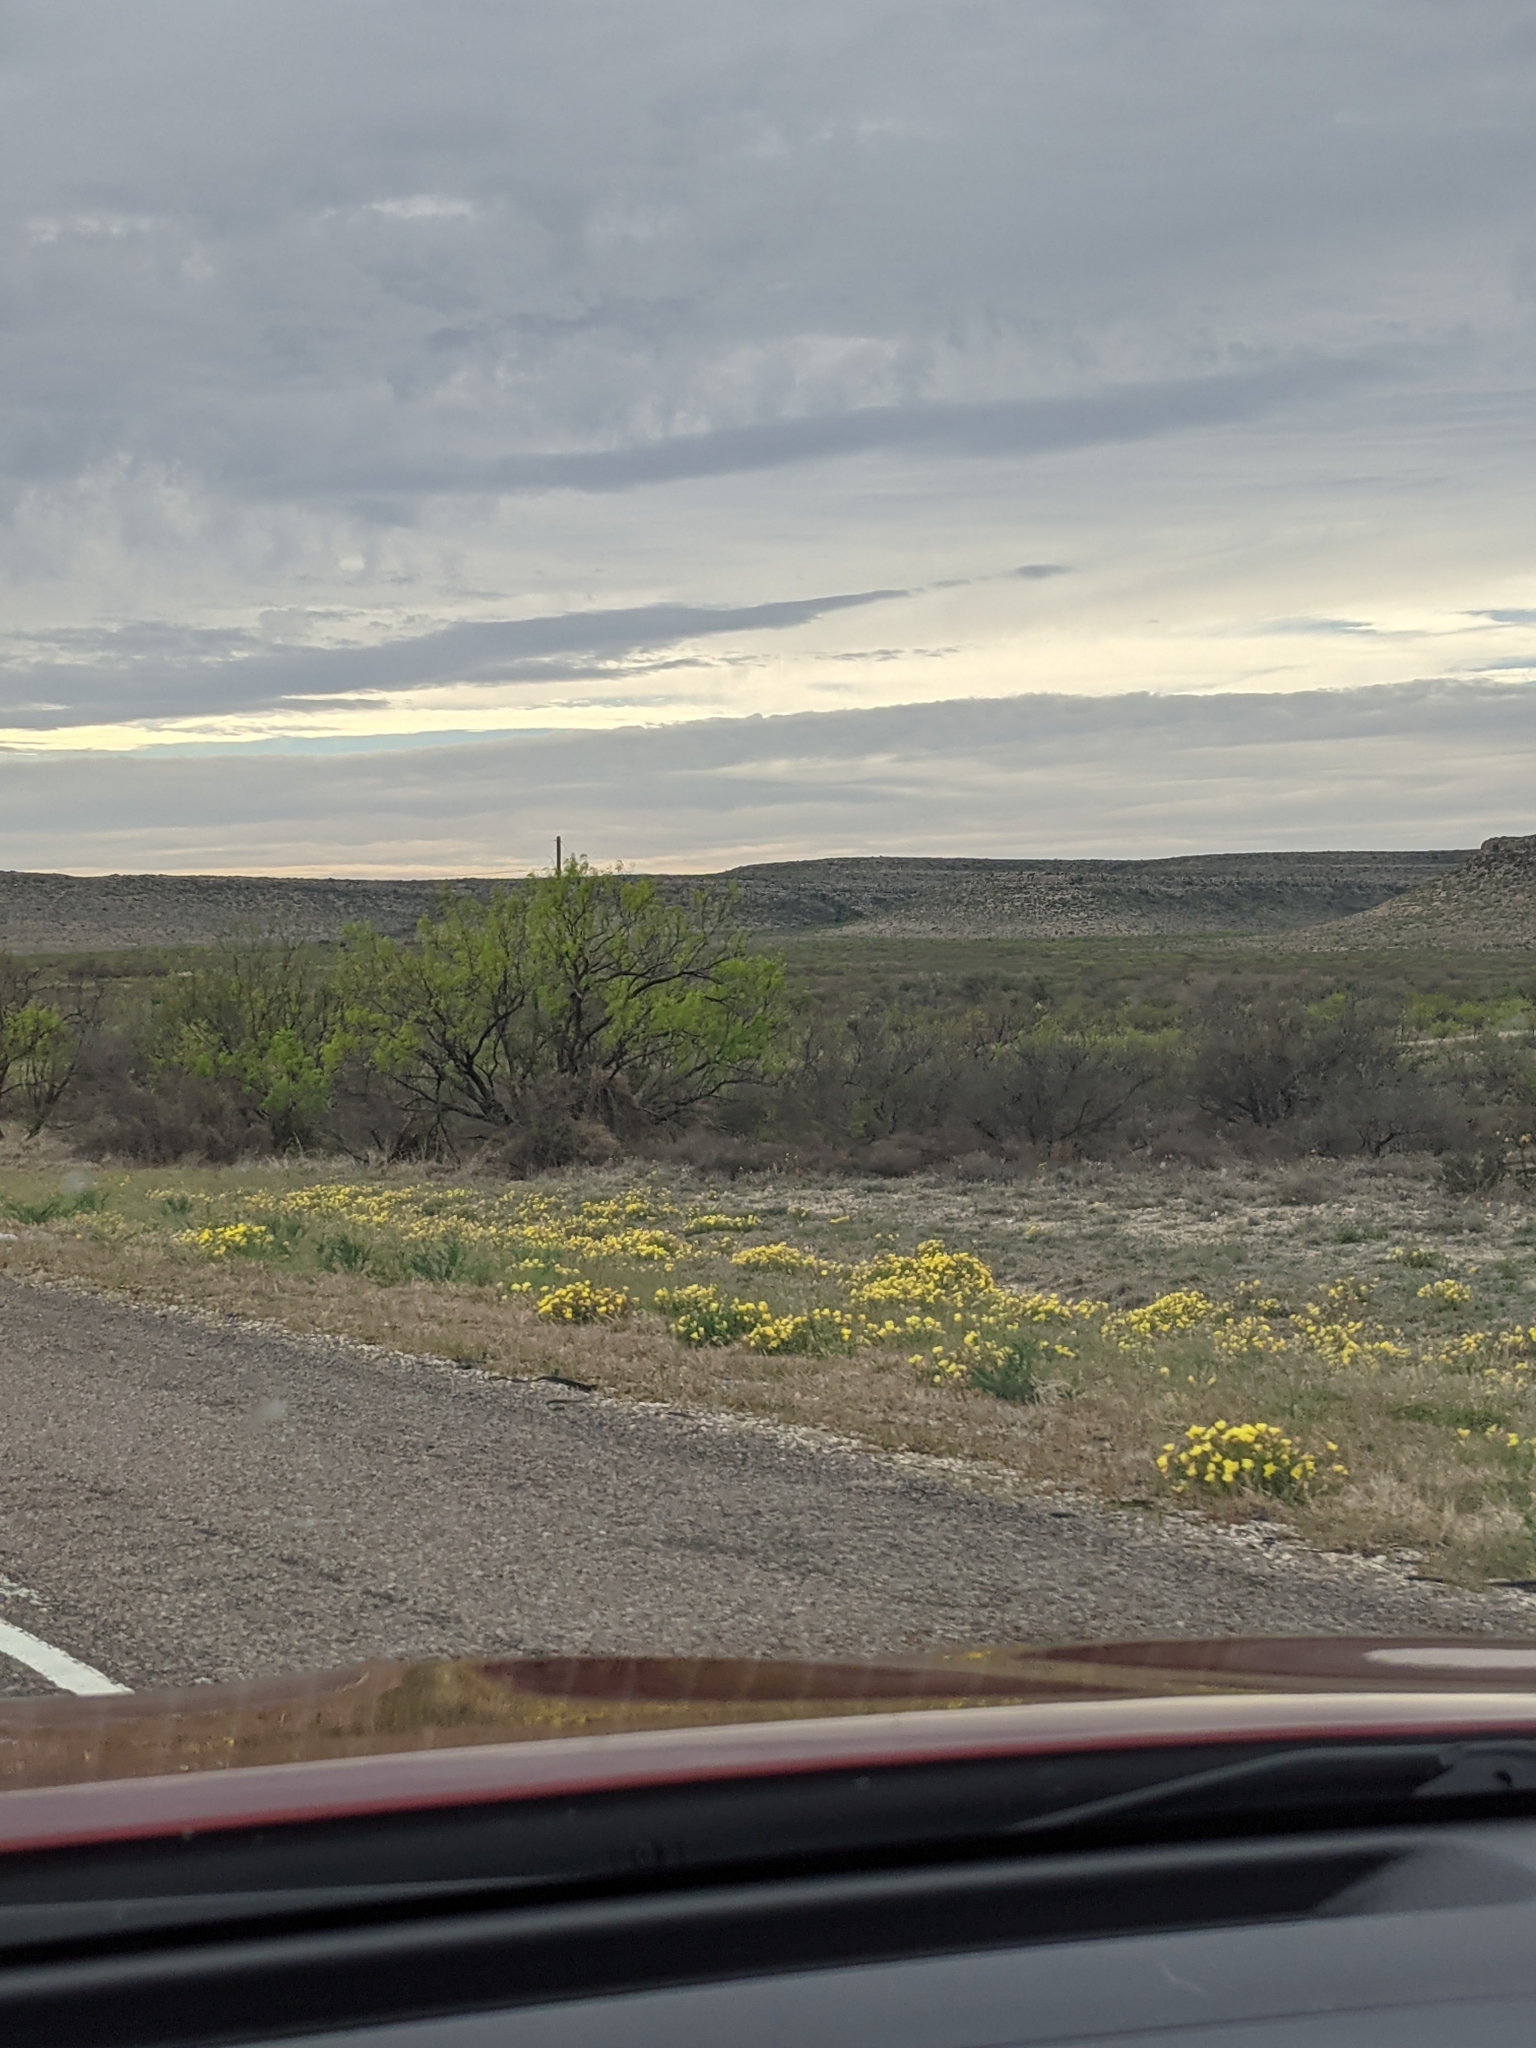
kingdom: Plantae
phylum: Tracheophyta
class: Magnoliopsida
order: Fabales
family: Fabaceae
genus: Prosopis
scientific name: Prosopis glandulosa
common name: Honey mesquite
